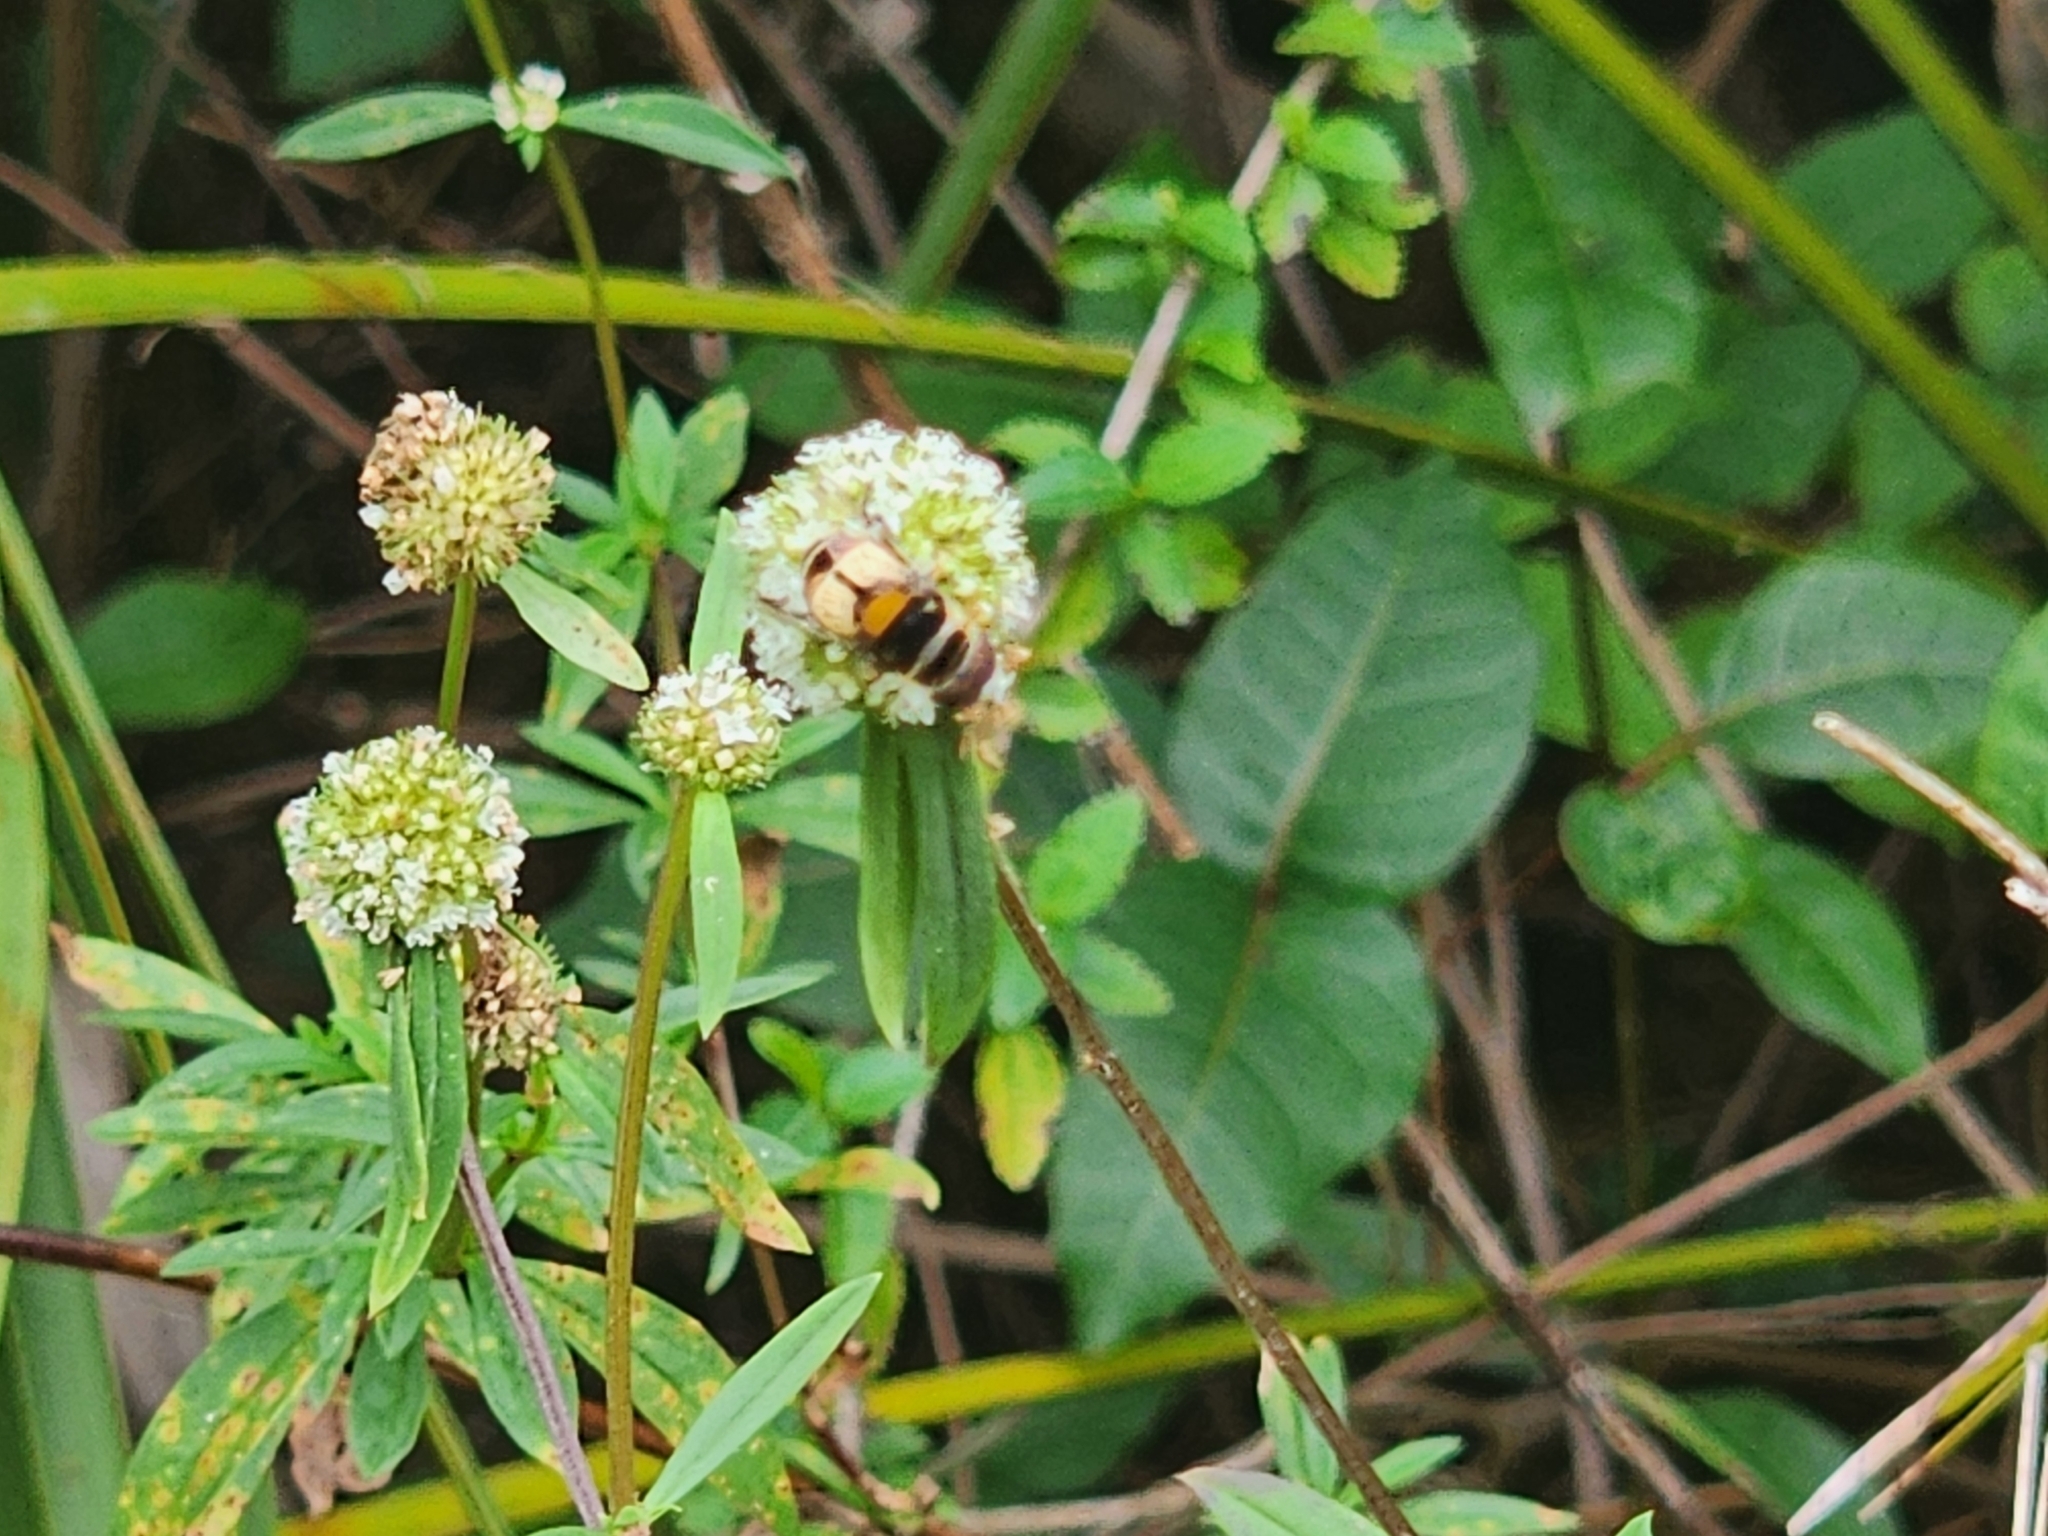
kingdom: Animalia
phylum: Arthropoda
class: Insecta
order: Diptera
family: Syrphidae
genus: Palpada
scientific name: Palpada albifrons
